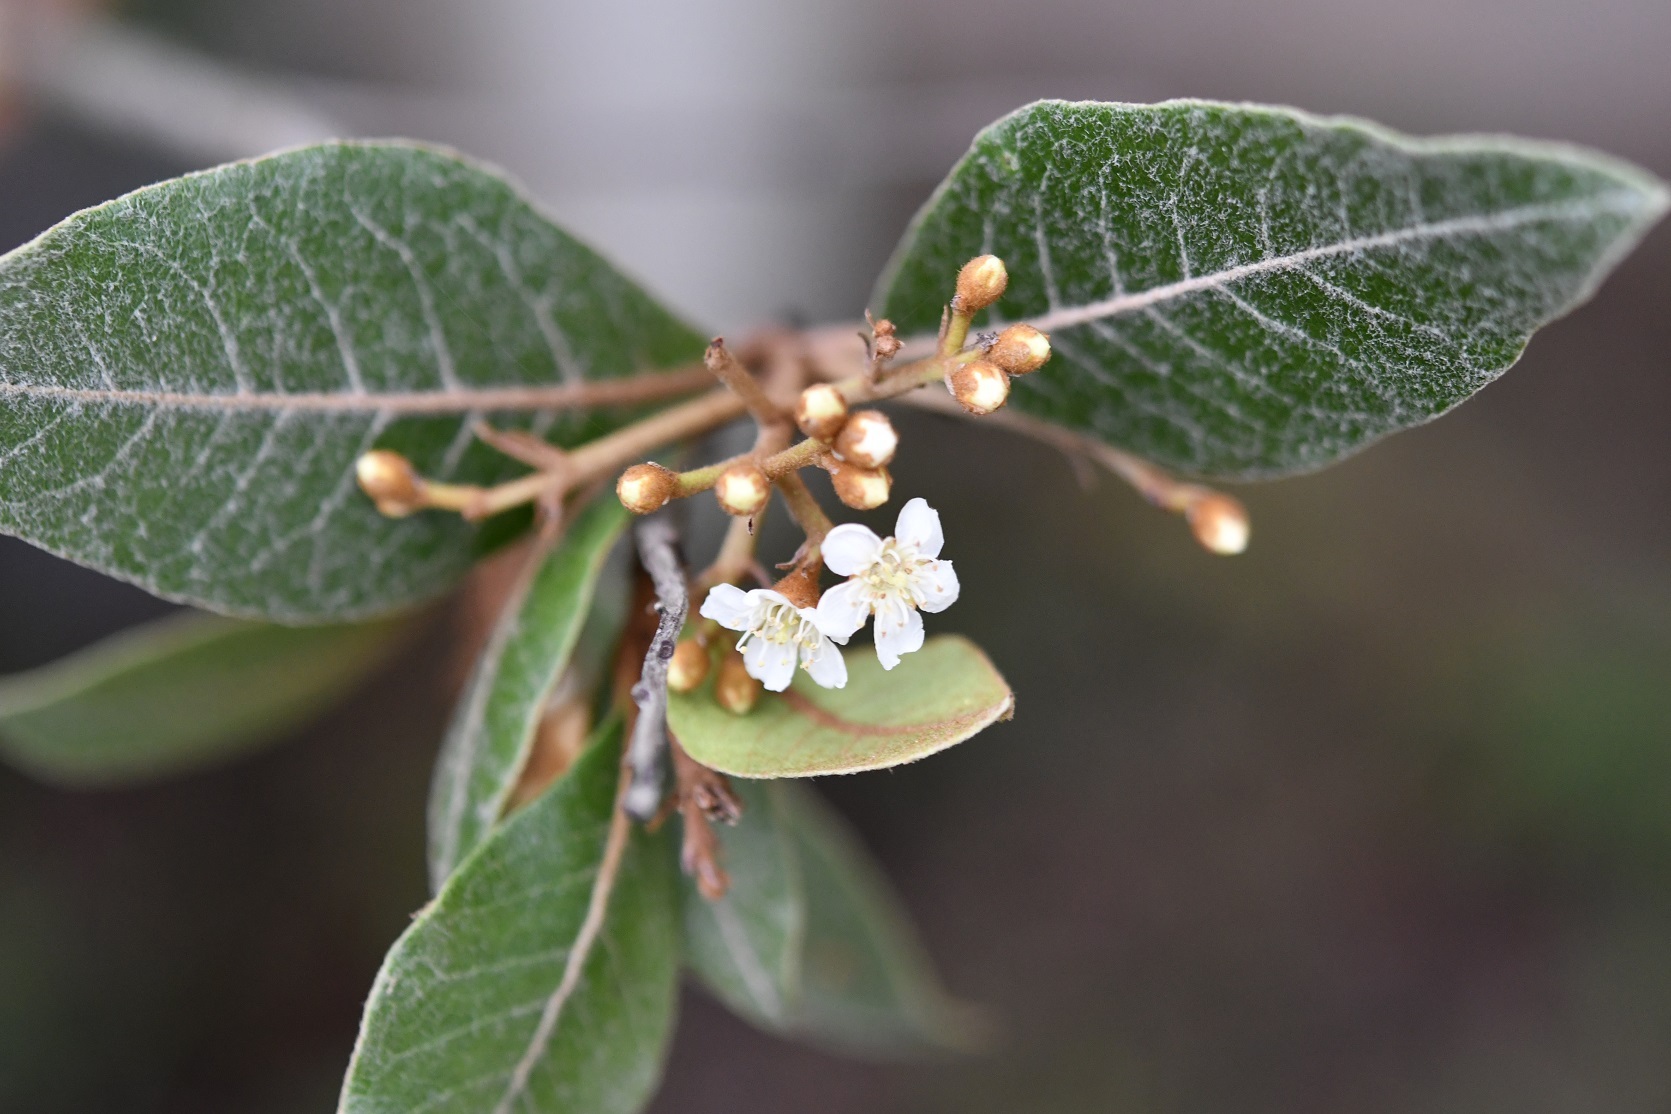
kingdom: Plantae
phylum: Tracheophyta
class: Magnoliopsida
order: Rosales
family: Rosaceae
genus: Phippsiomeles
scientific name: Phippsiomeles matudae
